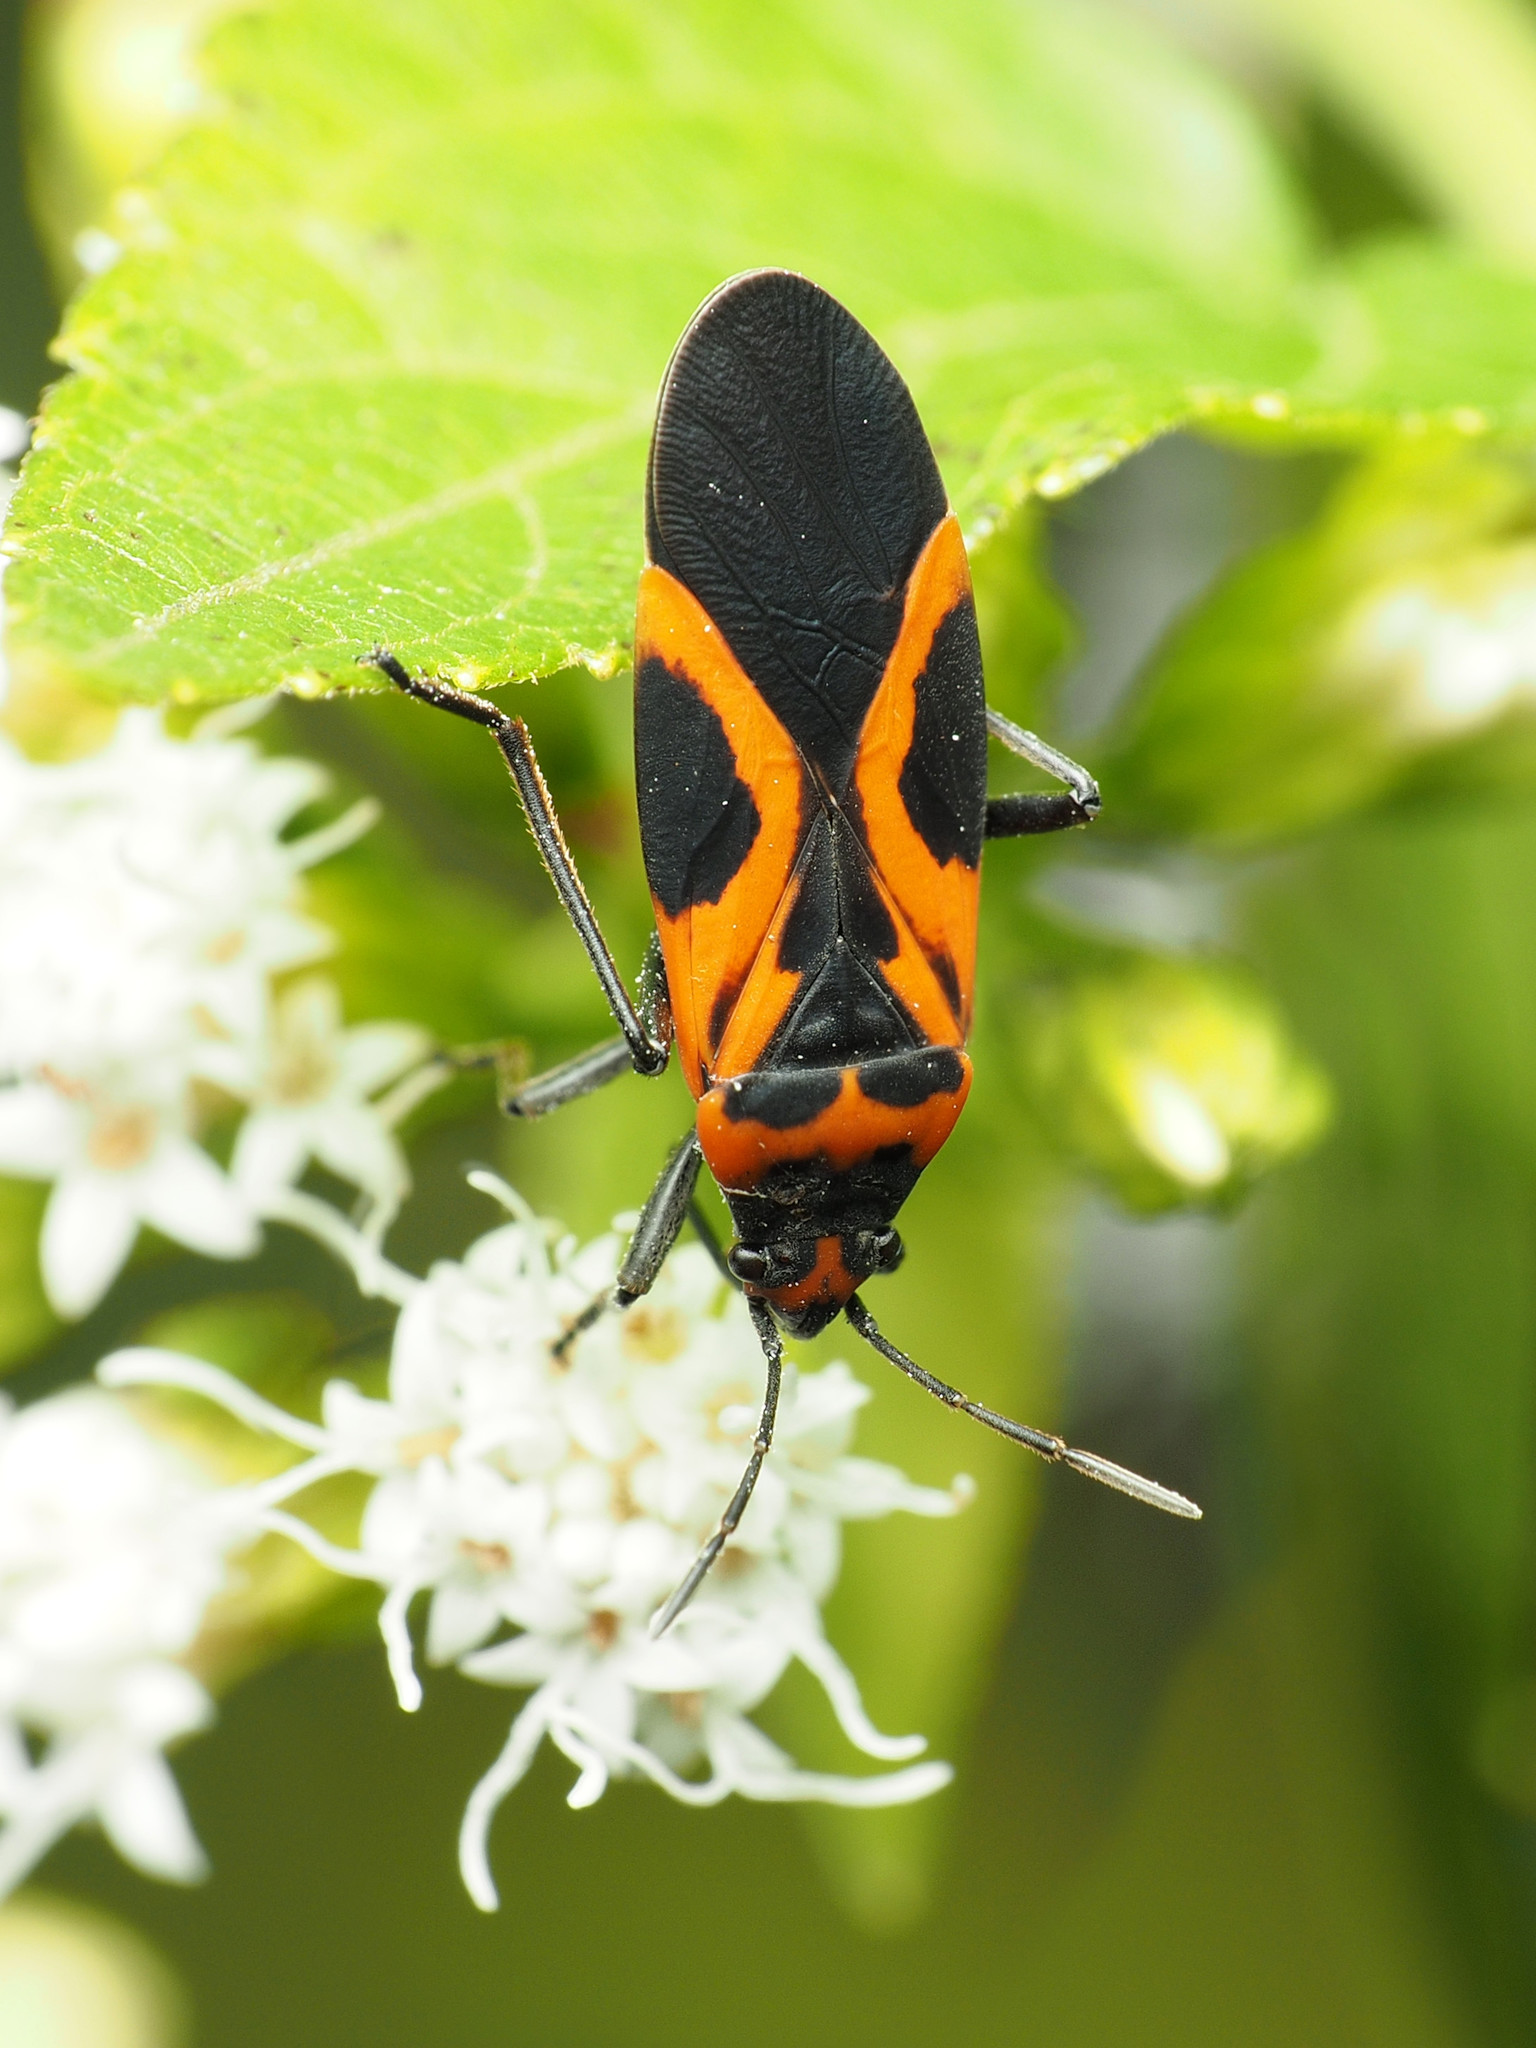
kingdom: Animalia
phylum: Arthropoda
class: Insecta
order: Hemiptera
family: Lygaeidae
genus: Lygaeus
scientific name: Lygaeus turcicus
